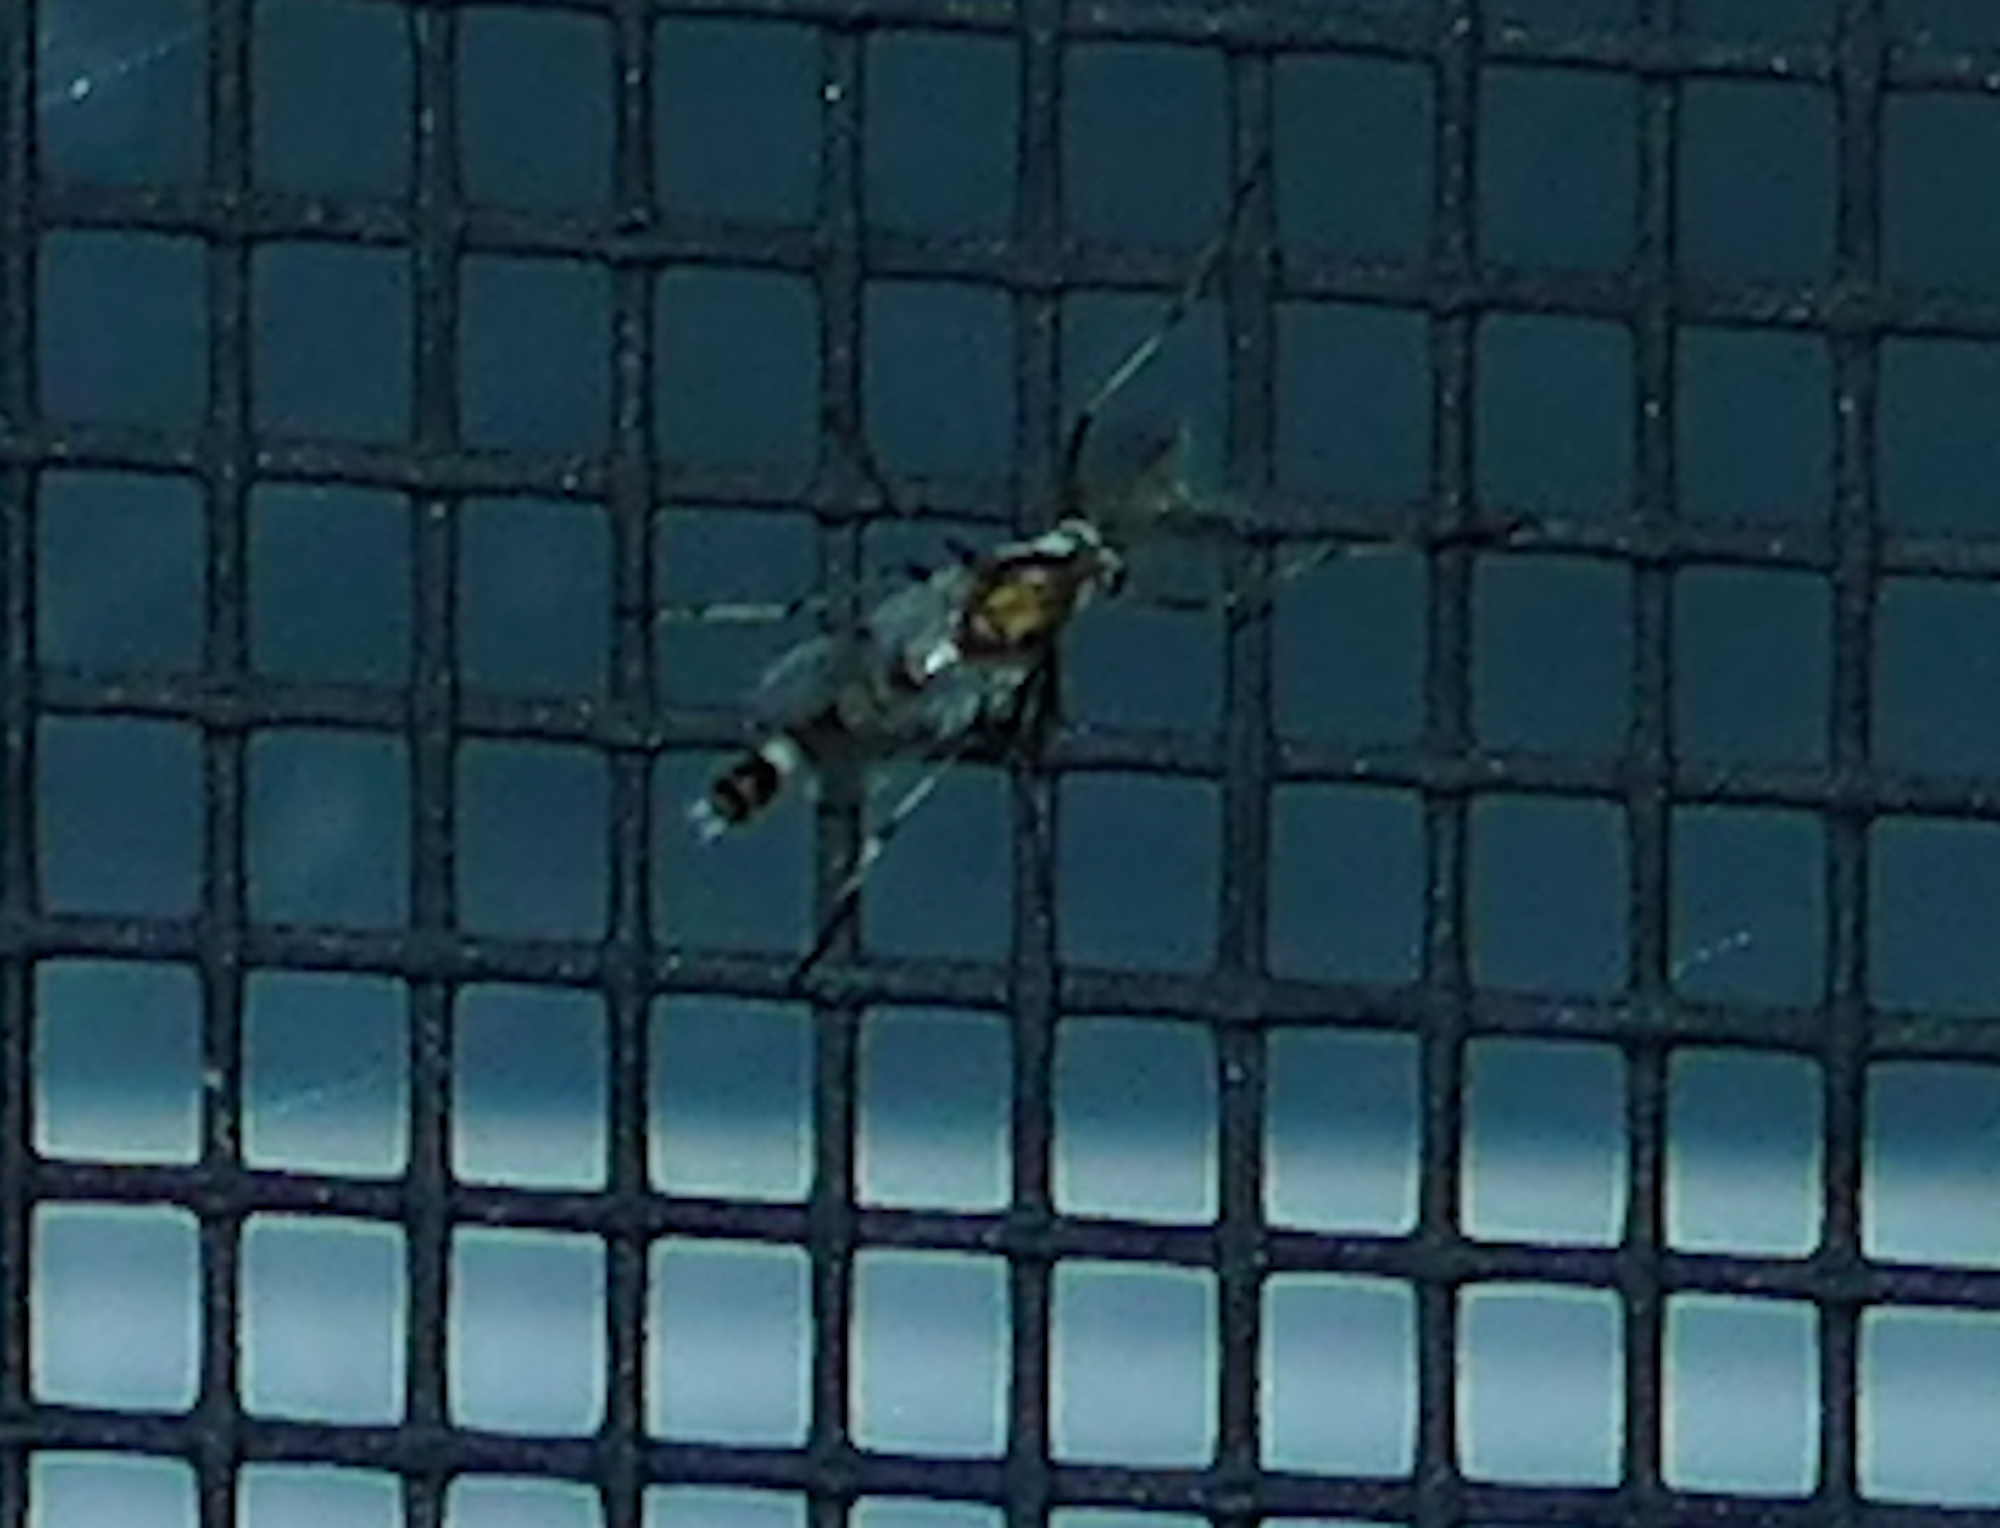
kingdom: Animalia
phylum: Arthropoda
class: Insecta
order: Diptera
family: Chironomidae
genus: Coelotanypus
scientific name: Coelotanypus
